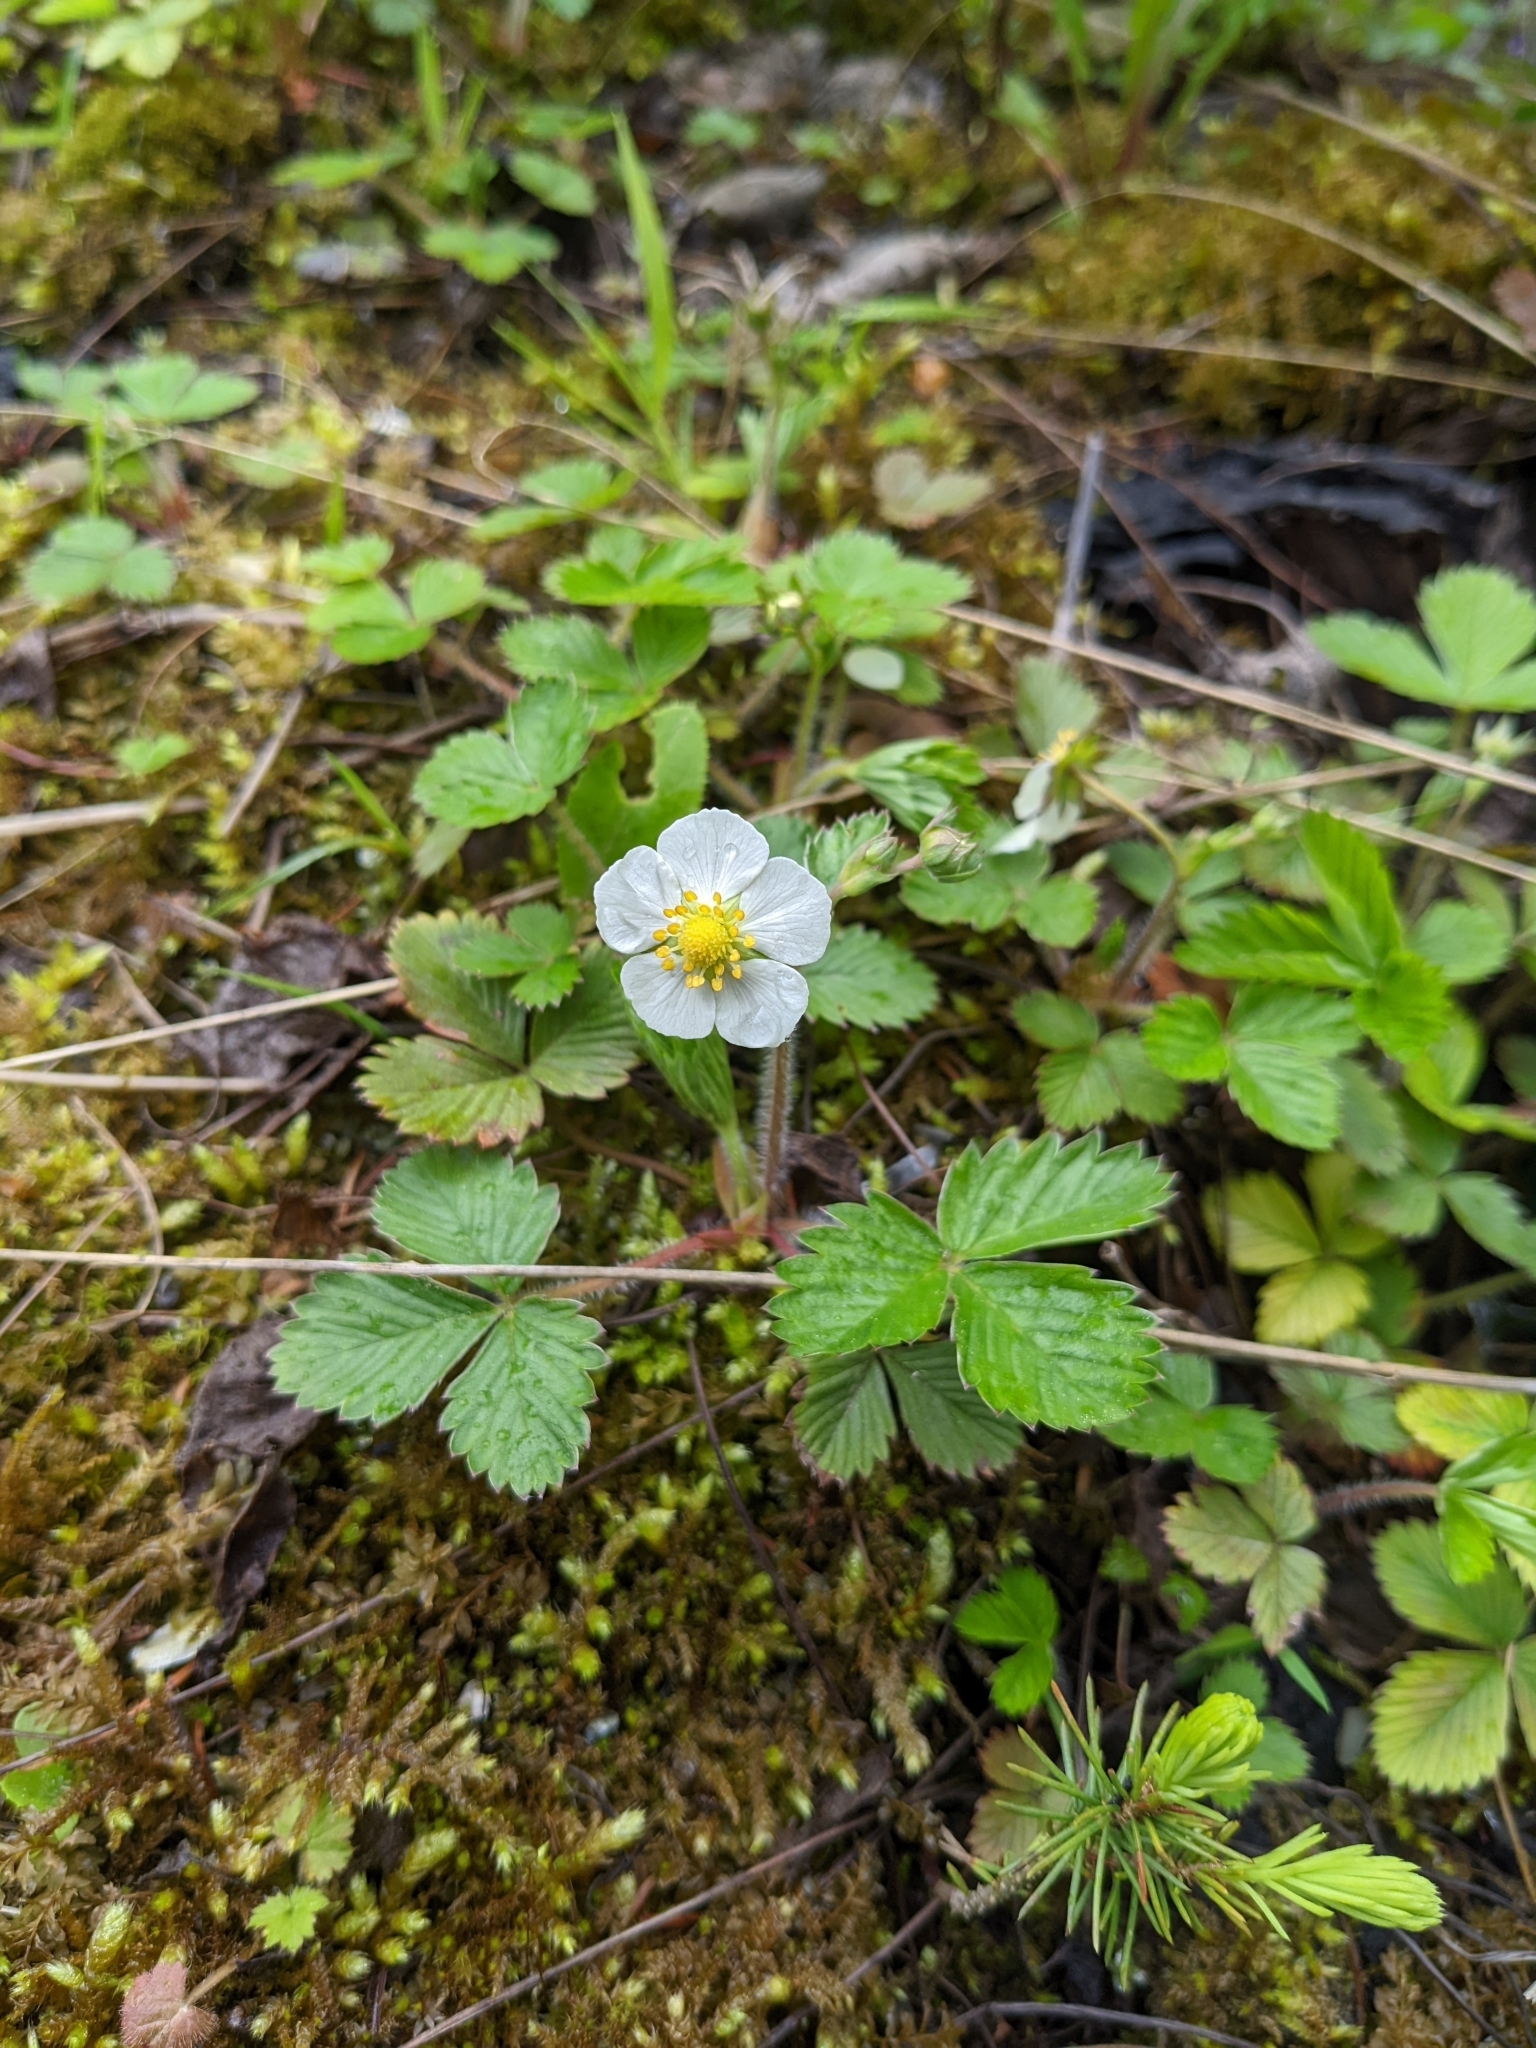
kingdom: Plantae
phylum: Tracheophyta
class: Magnoliopsida
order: Rosales
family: Rosaceae
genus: Fragaria
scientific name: Fragaria vesca
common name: Wild strawberry
